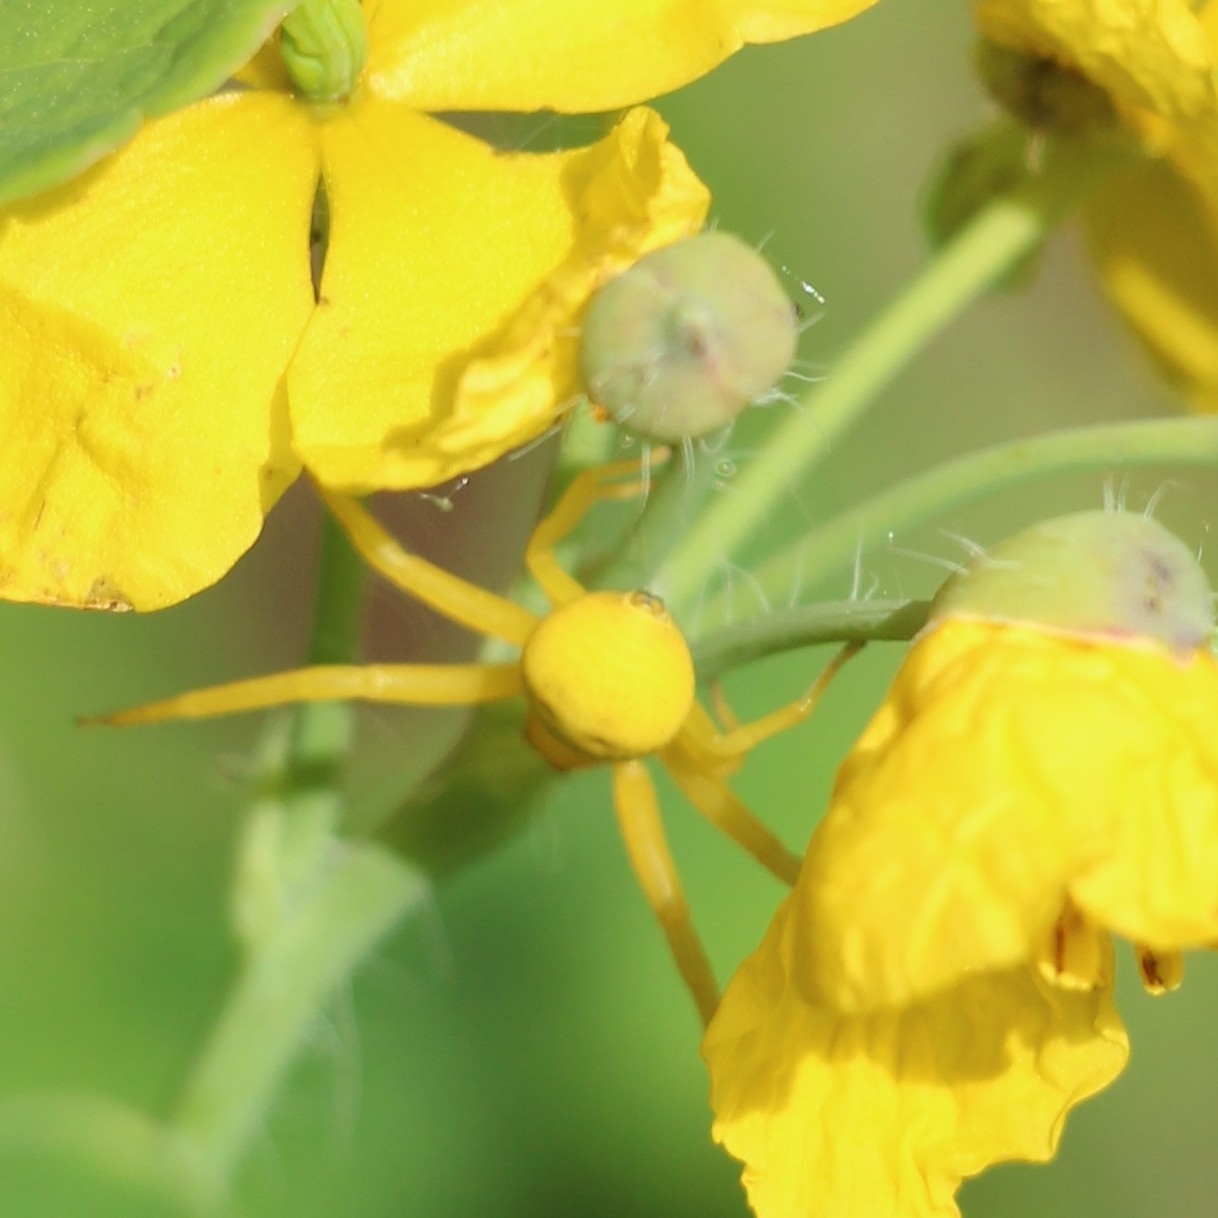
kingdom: Animalia
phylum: Arthropoda
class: Arachnida
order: Araneae
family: Thomisidae
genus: Misumena
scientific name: Misumena vatia
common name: Goldenrod crab spider
